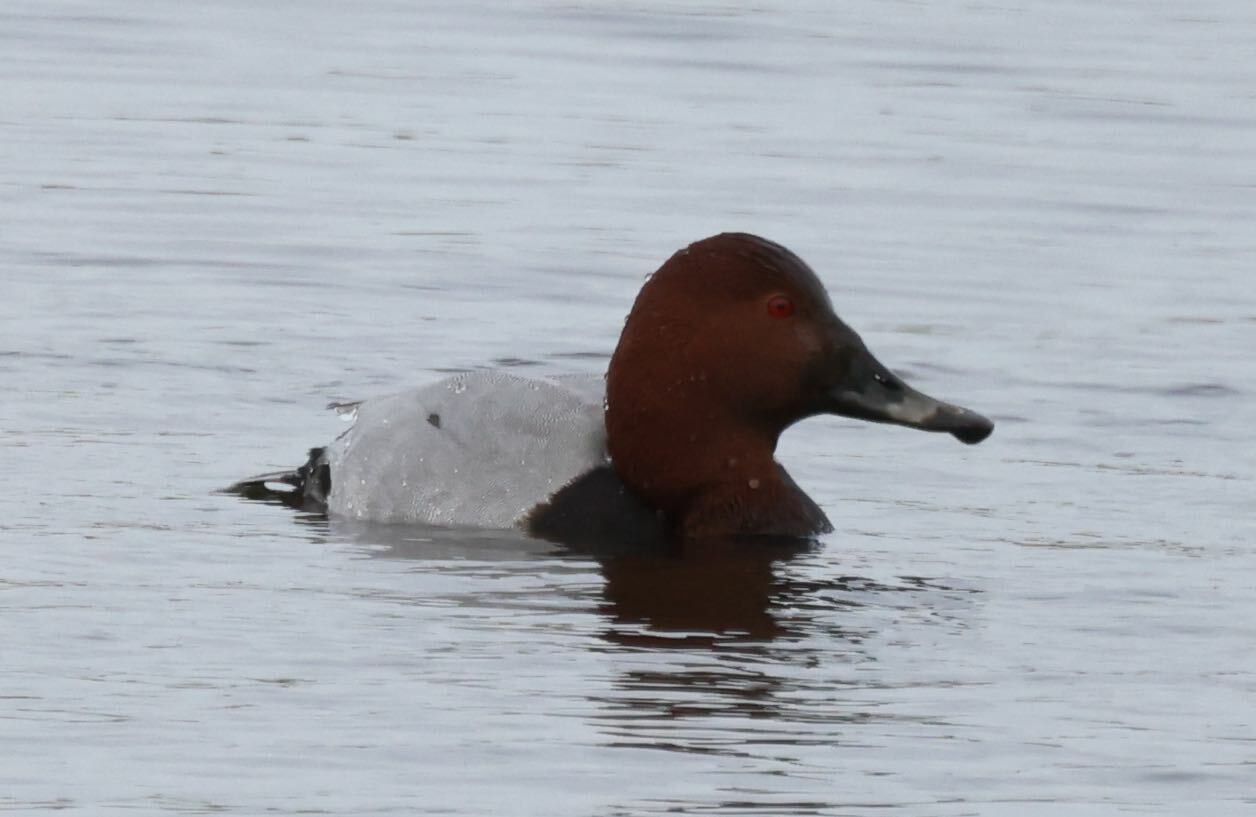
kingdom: Animalia
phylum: Chordata
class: Aves
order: Anseriformes
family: Anatidae
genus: Aythya
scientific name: Aythya ferina
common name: Common pochard
